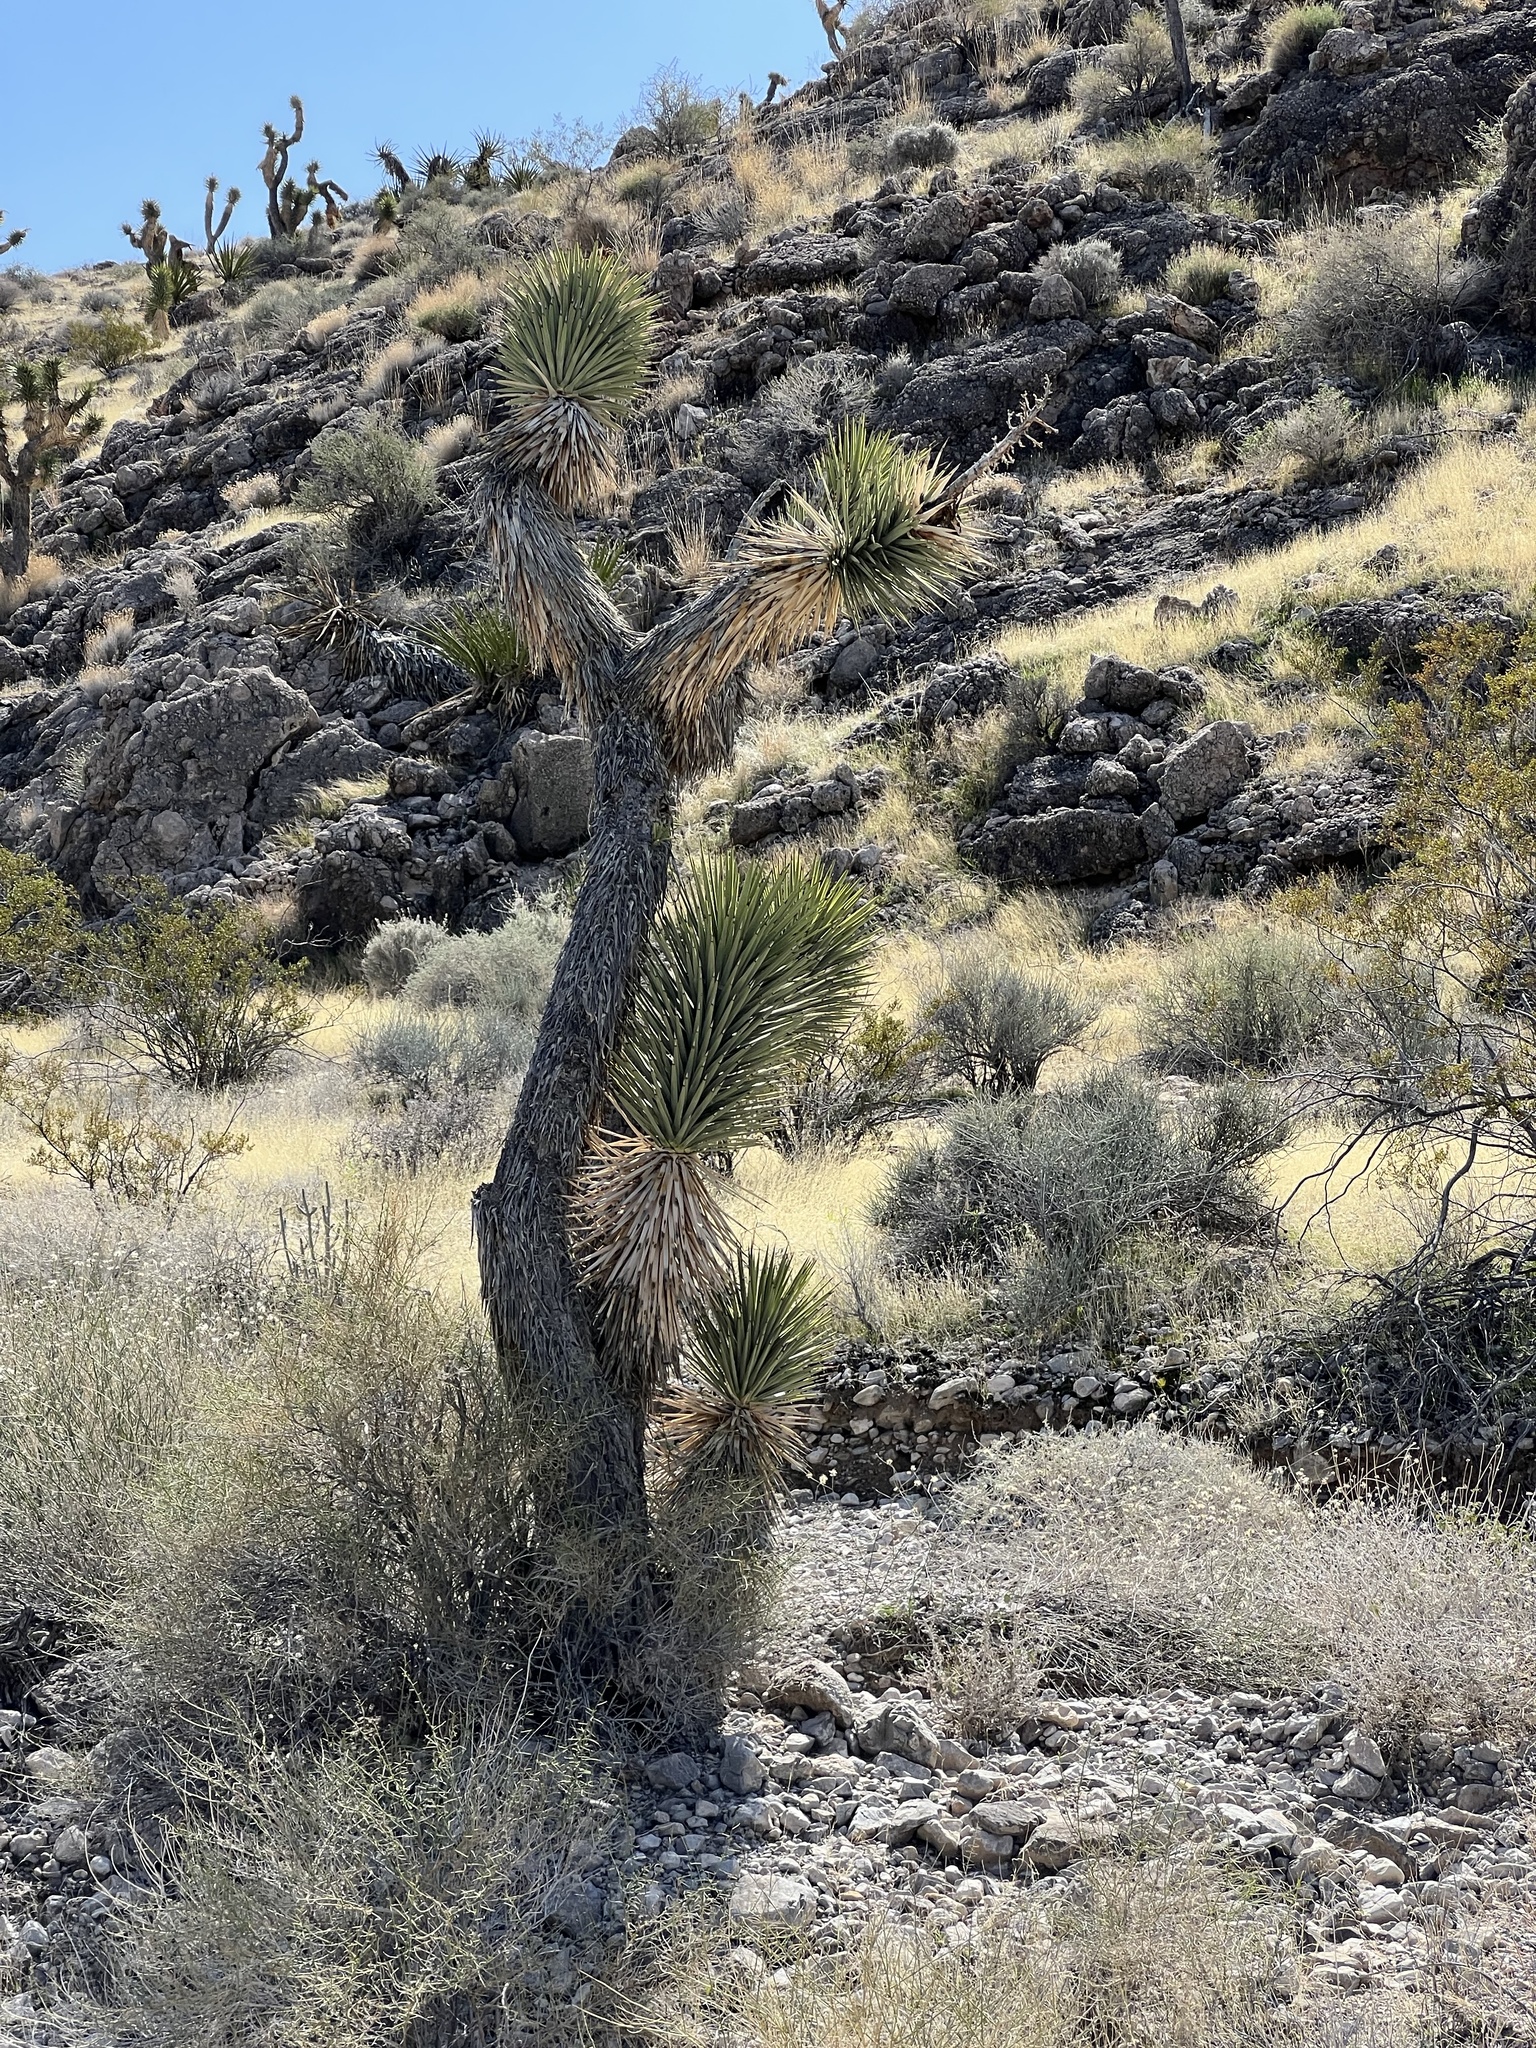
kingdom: Plantae
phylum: Tracheophyta
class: Liliopsida
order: Asparagales
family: Asparagaceae
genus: Yucca
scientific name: Yucca brevifolia
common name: Joshua tree
